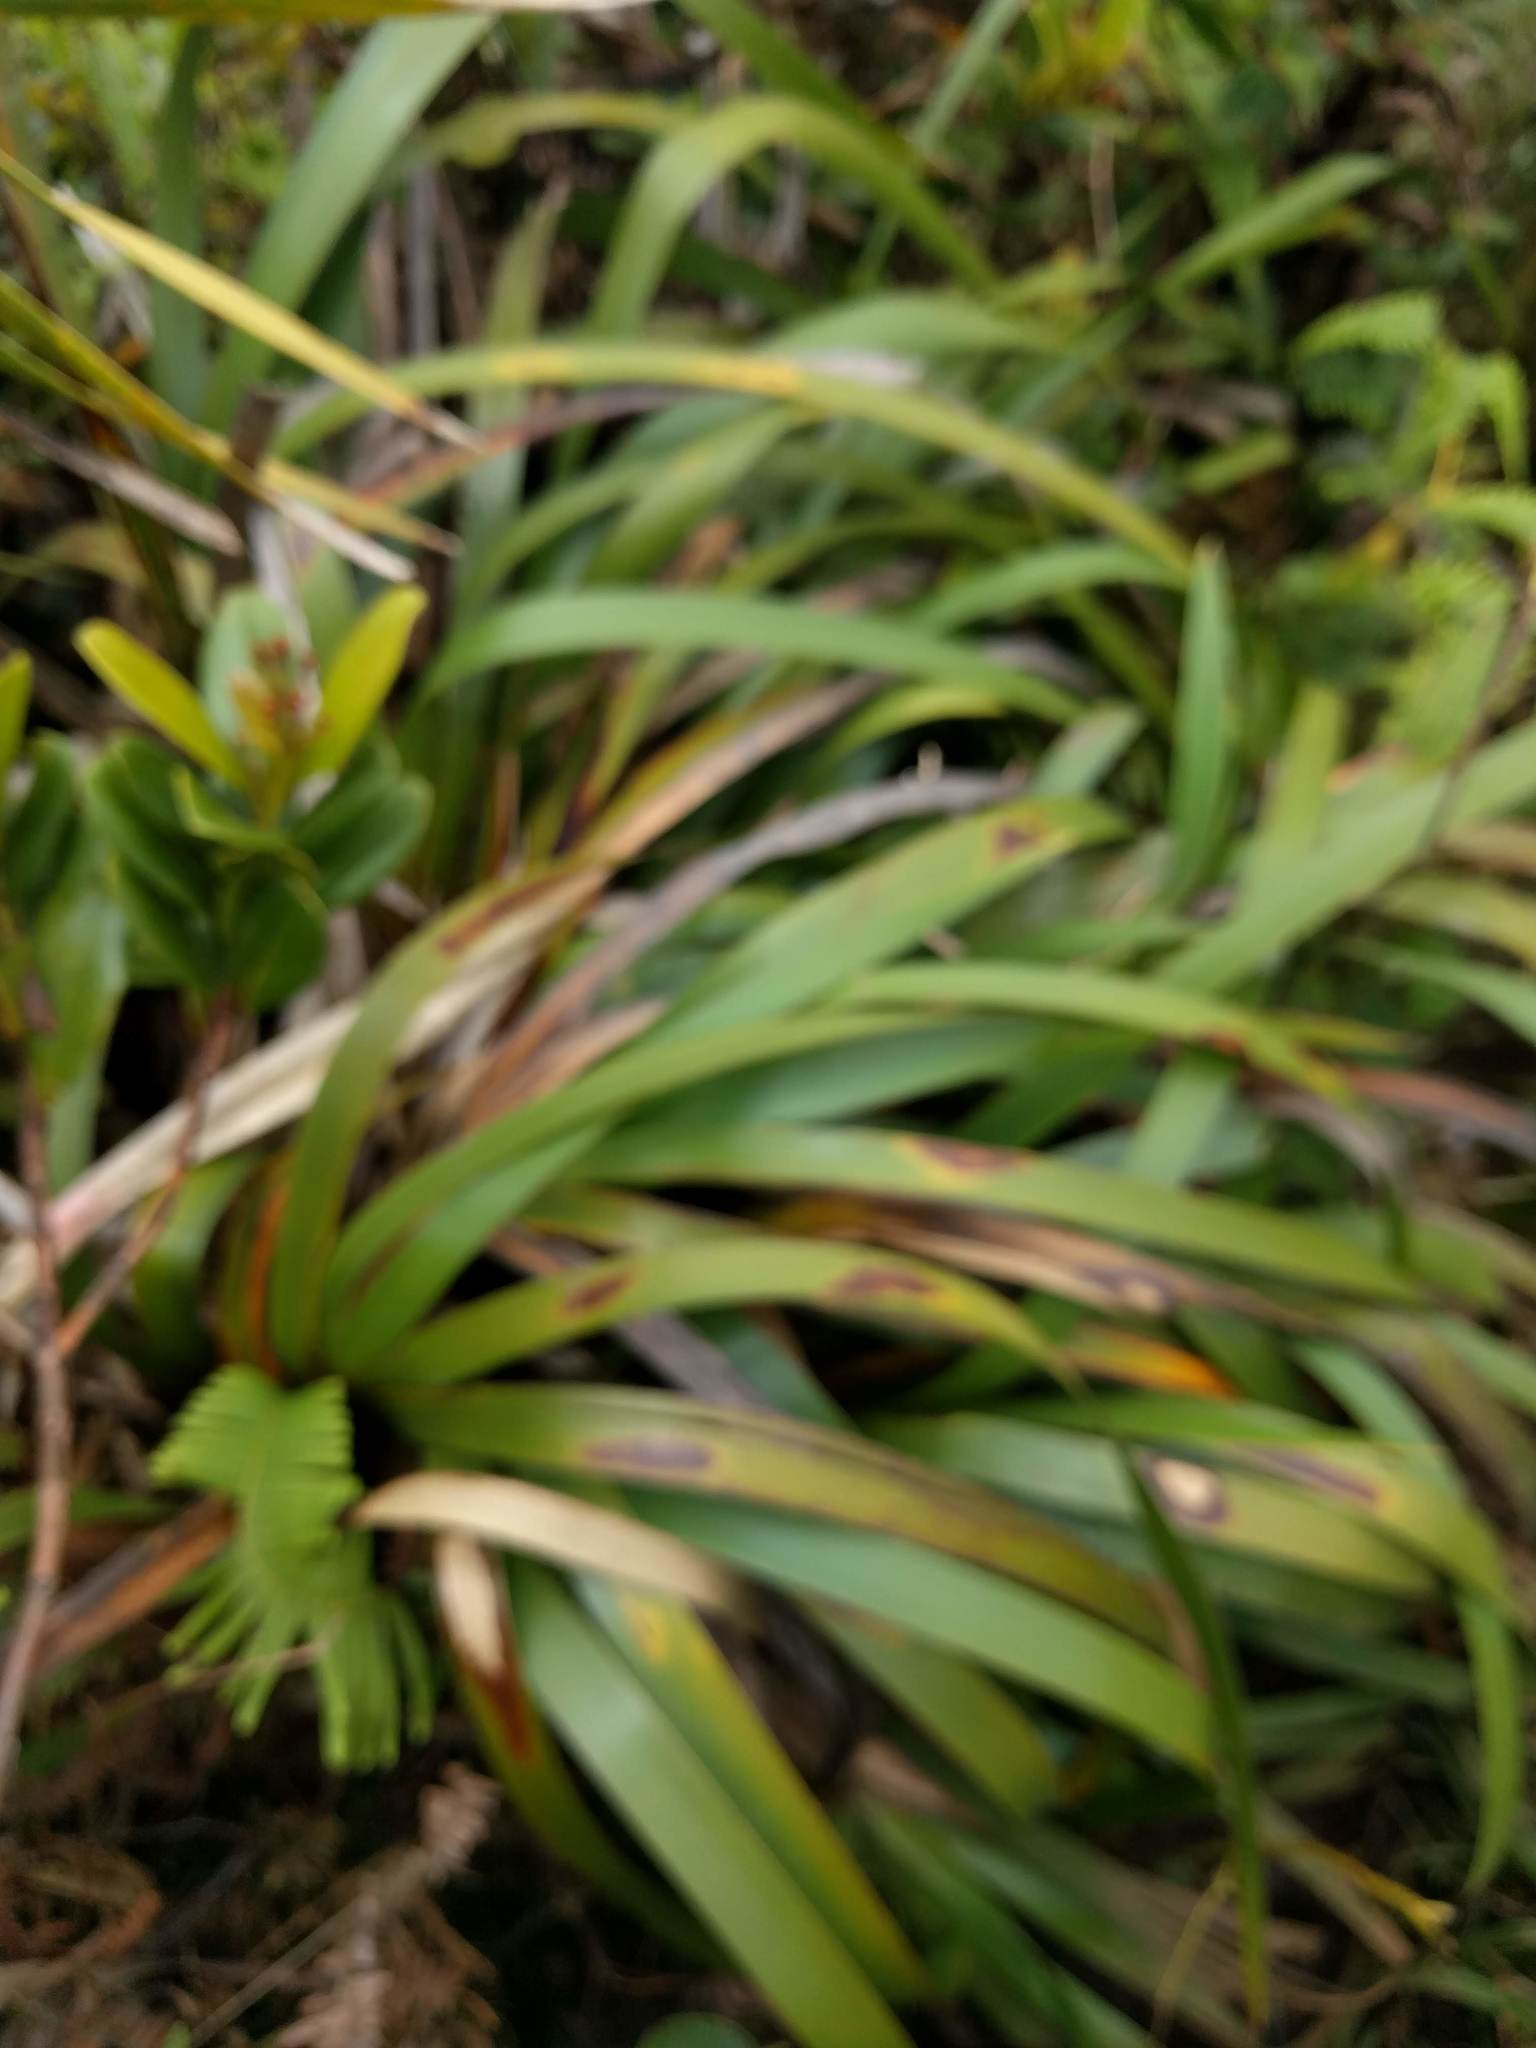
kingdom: Plantae
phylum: Tracheophyta
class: Liliopsida
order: Poales
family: Cyperaceae
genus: Machaerina
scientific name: Machaerina angustifolia
